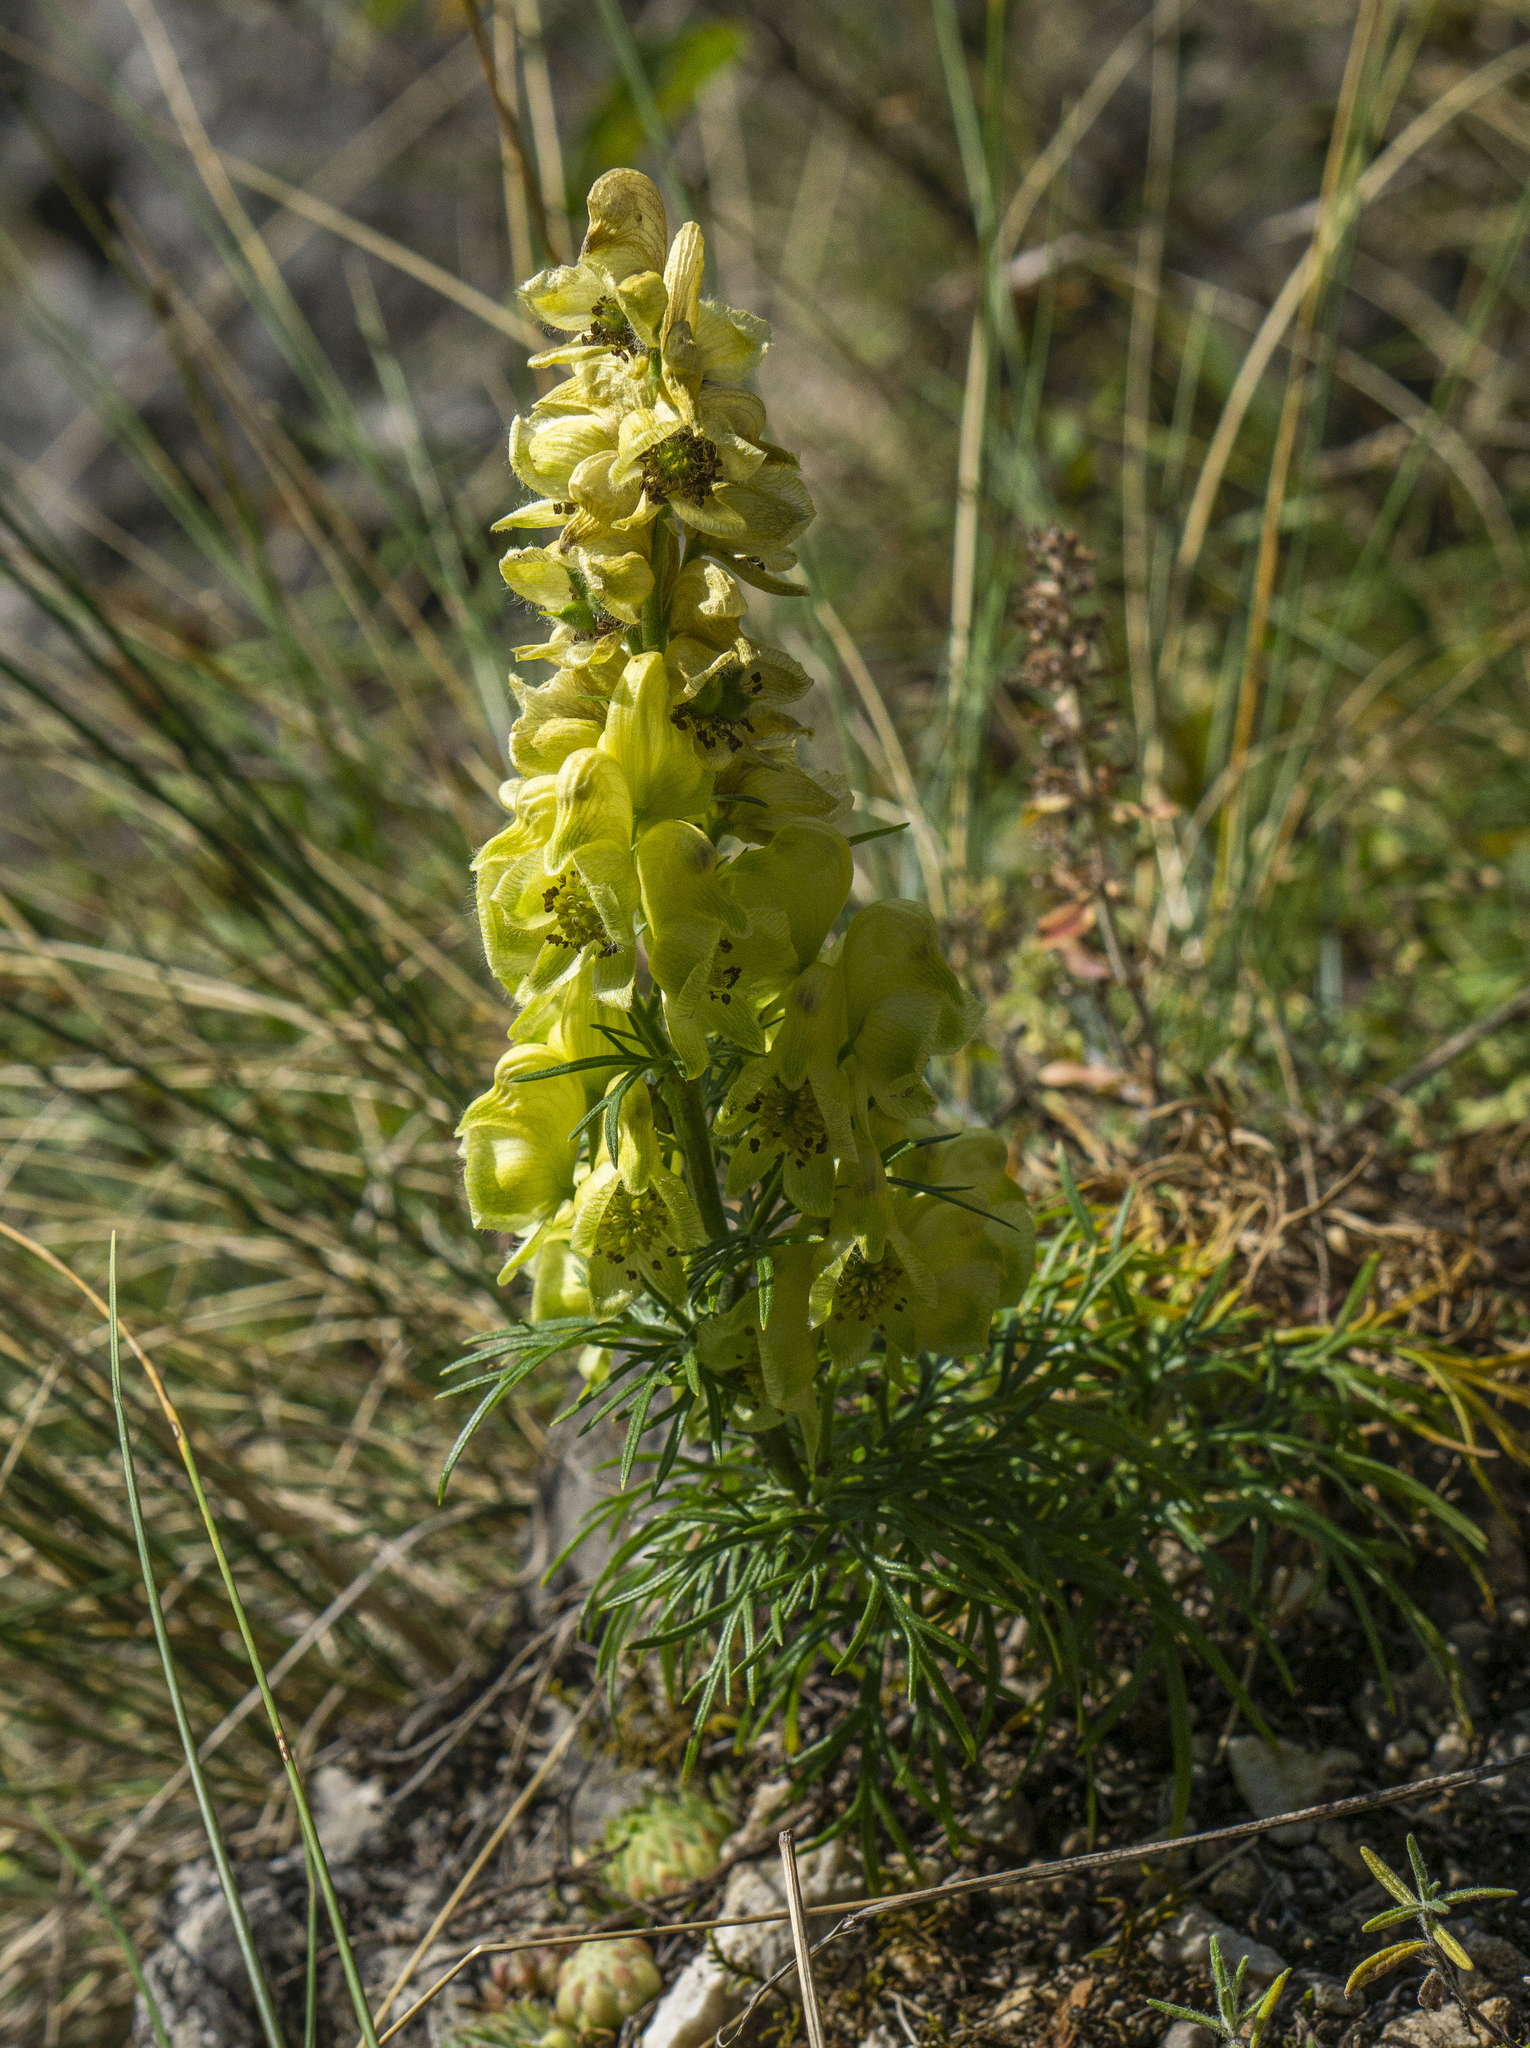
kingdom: Plantae
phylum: Tracheophyta
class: Magnoliopsida
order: Ranunculales
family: Ranunculaceae
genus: Aconitum
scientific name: Aconitum anthora
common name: Yellow monkshood
